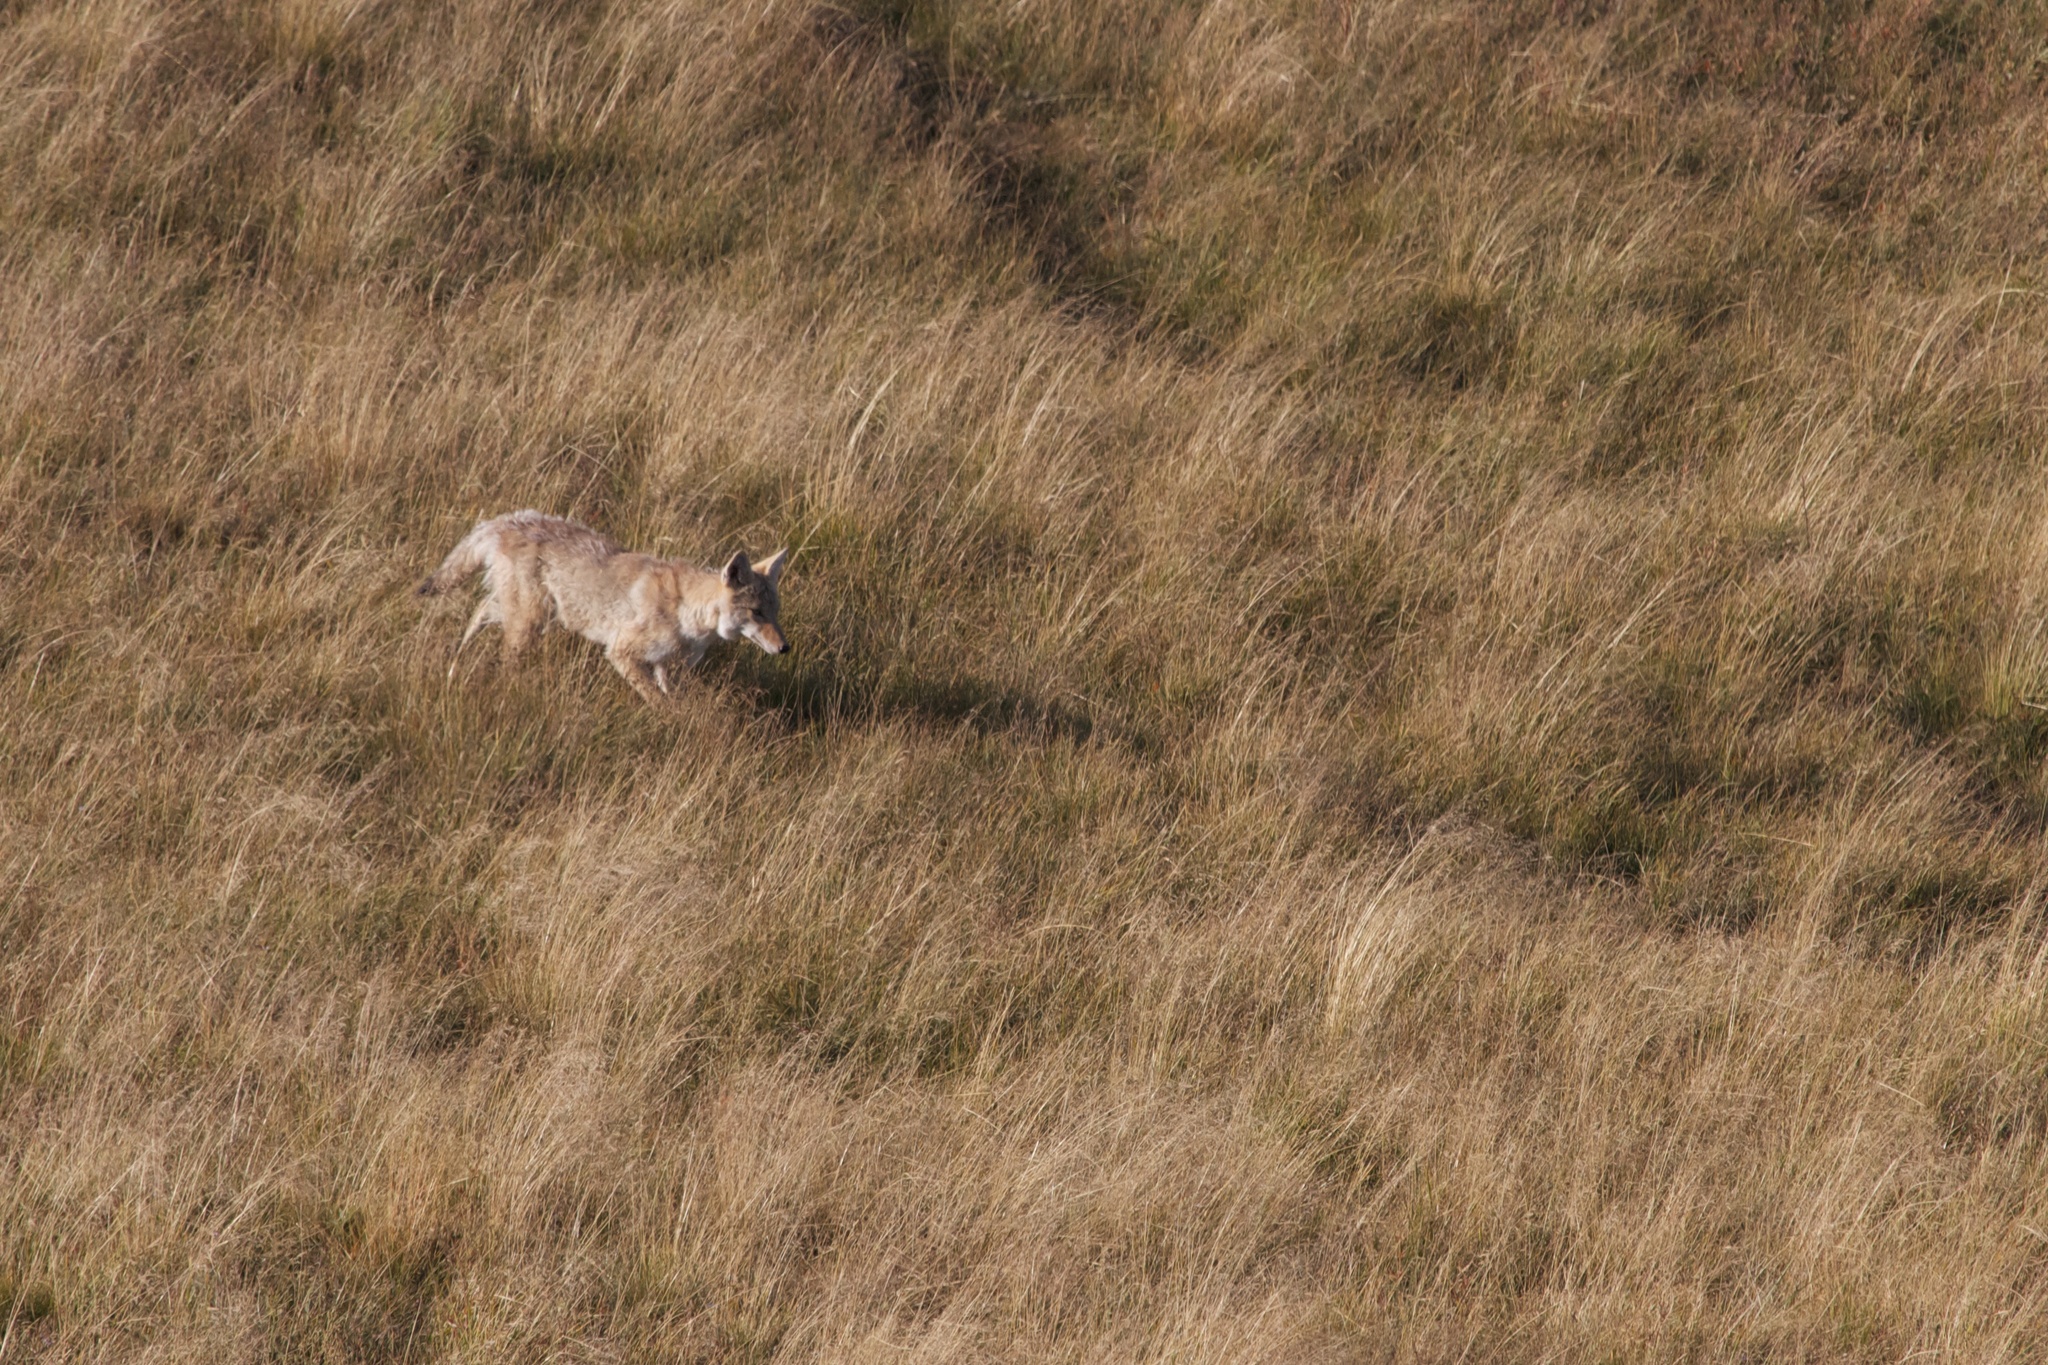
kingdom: Animalia
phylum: Chordata
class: Mammalia
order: Carnivora
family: Canidae
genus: Canis
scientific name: Canis latrans
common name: Coyote
